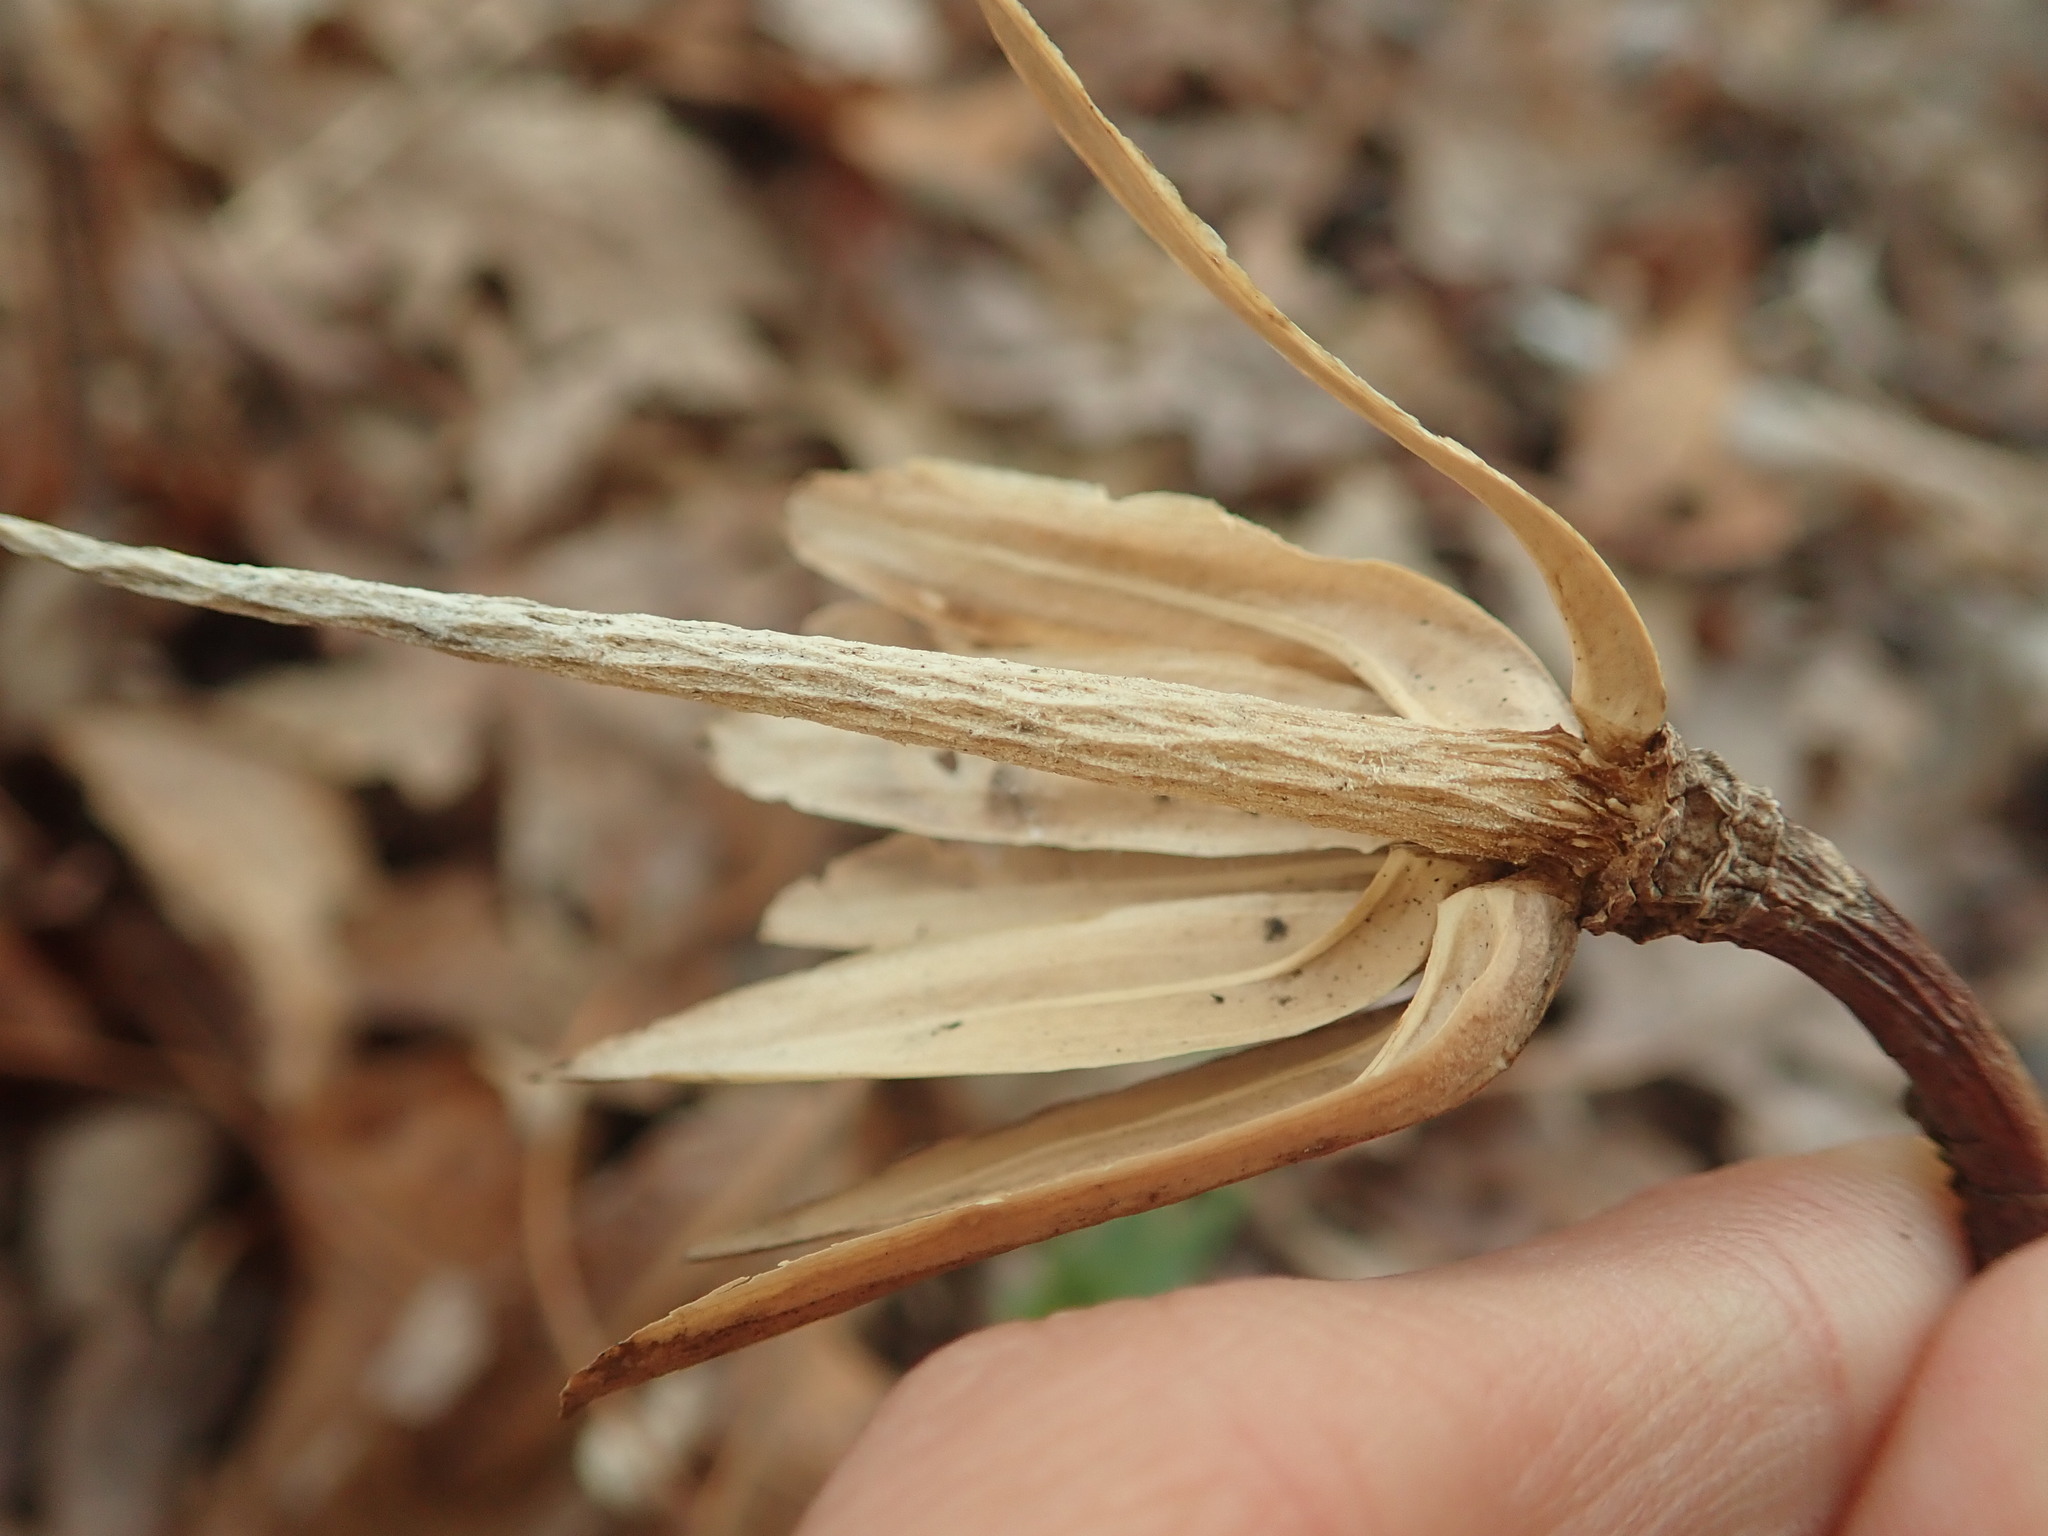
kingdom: Plantae
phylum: Tracheophyta
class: Magnoliopsida
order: Magnoliales
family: Magnoliaceae
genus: Liriodendron
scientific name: Liriodendron tulipifera
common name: Tulip tree
